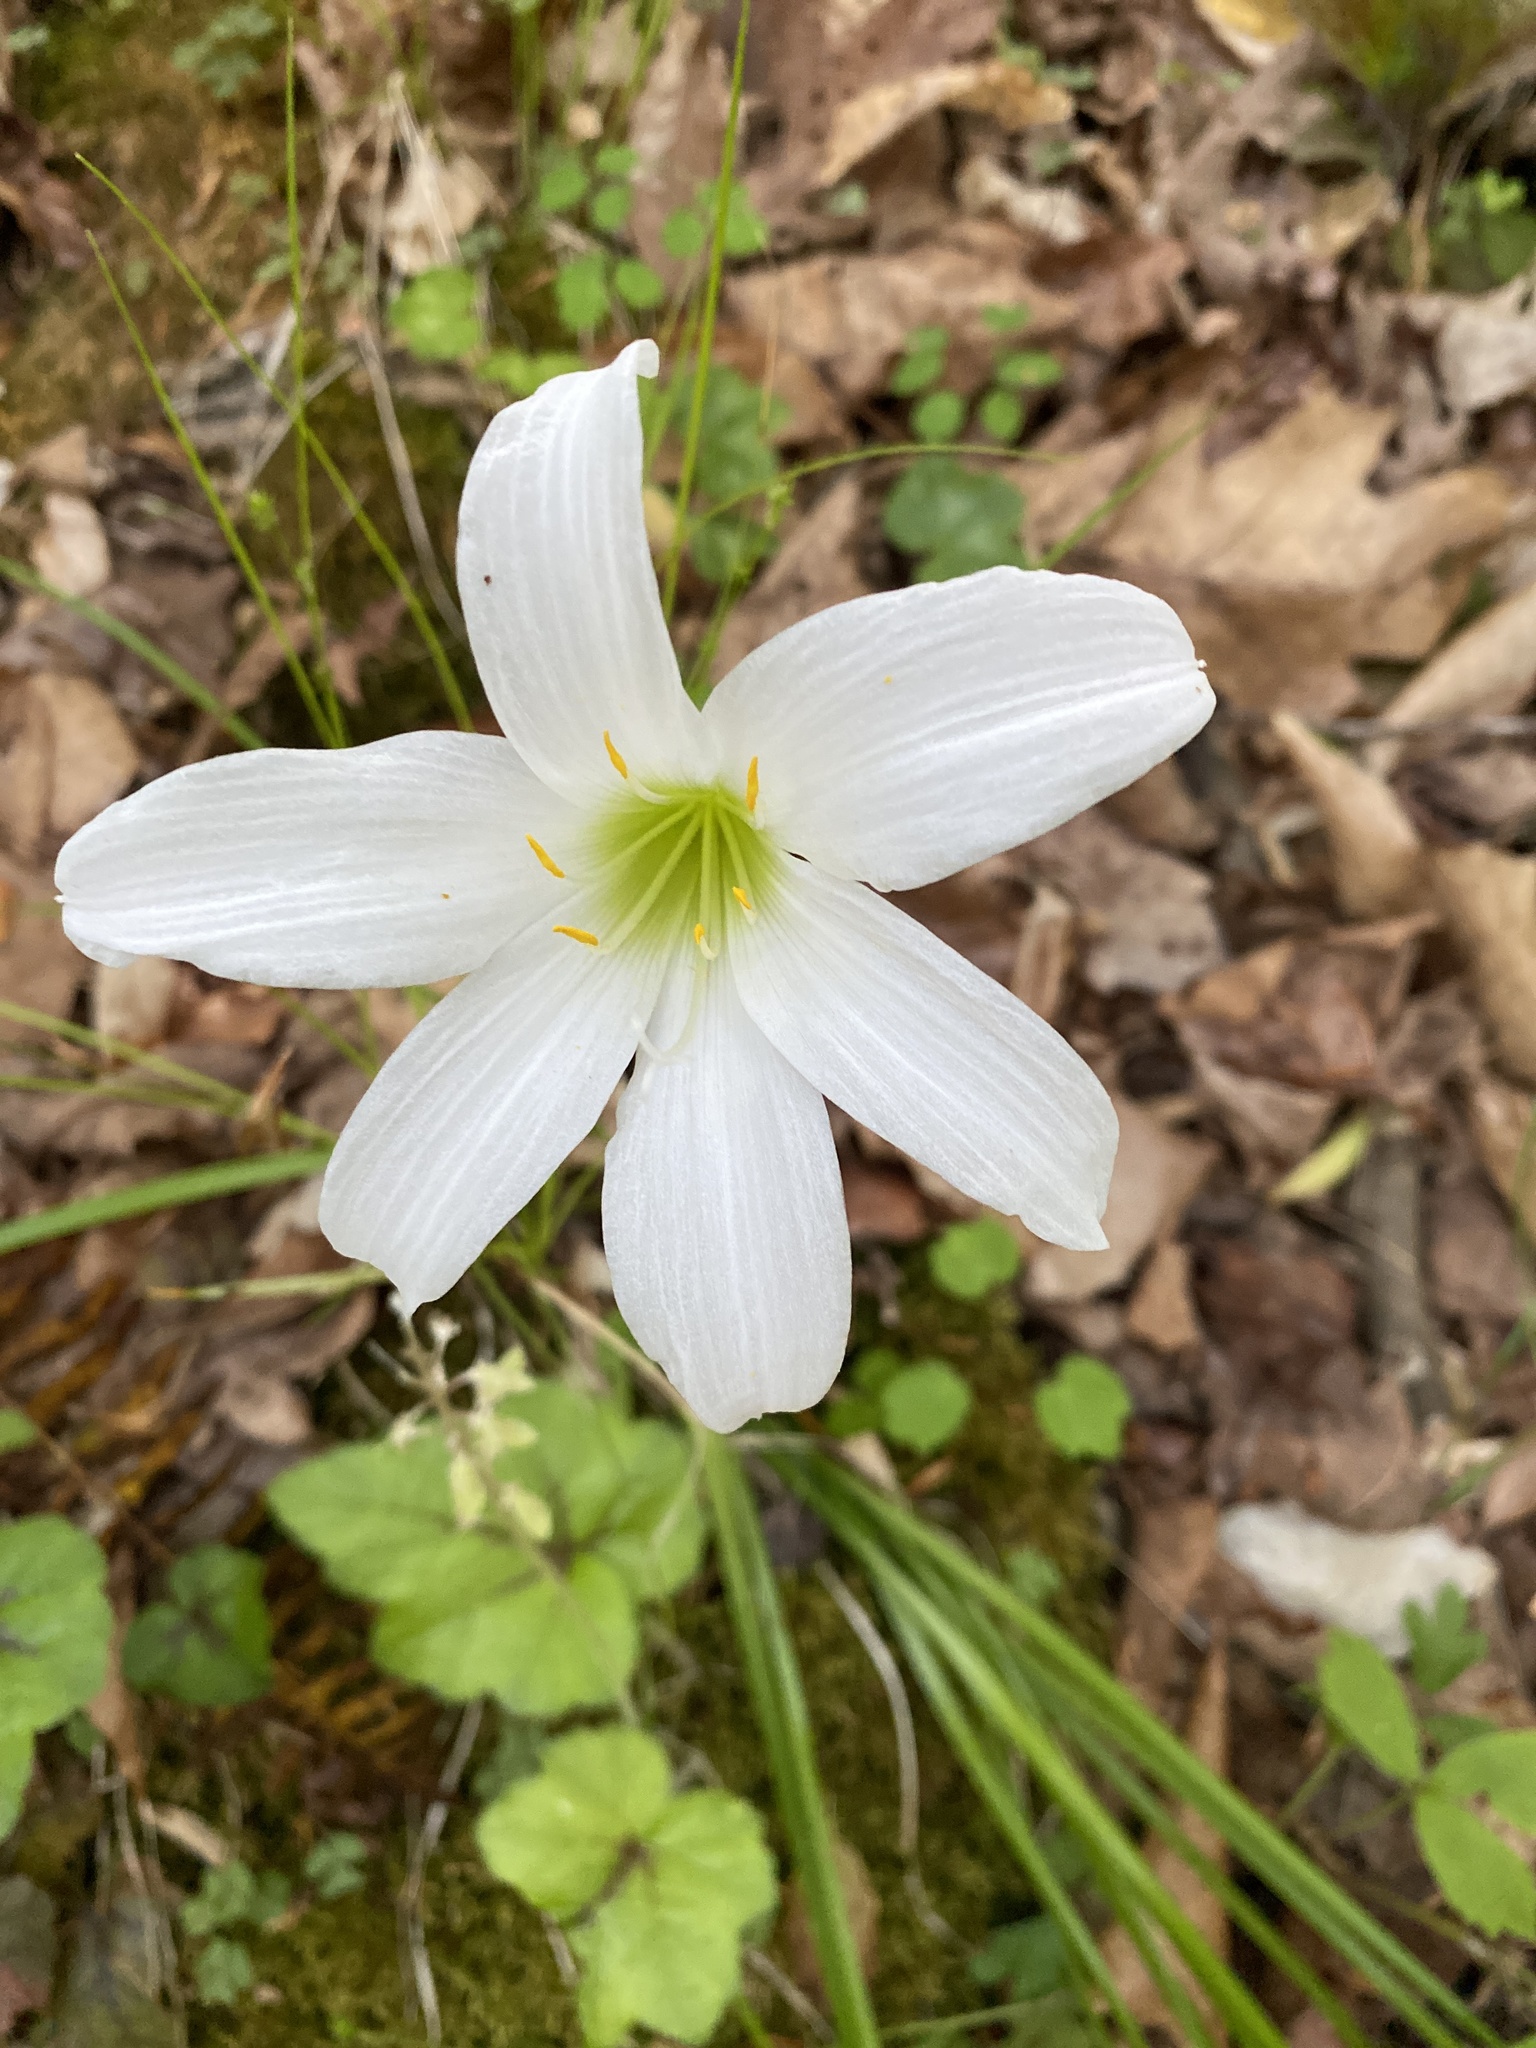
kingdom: Plantae
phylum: Tracheophyta
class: Liliopsida
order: Asparagales
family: Amaryllidaceae
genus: Zephyranthes
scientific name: Zephyranthes atamasco
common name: Atamasco lily
